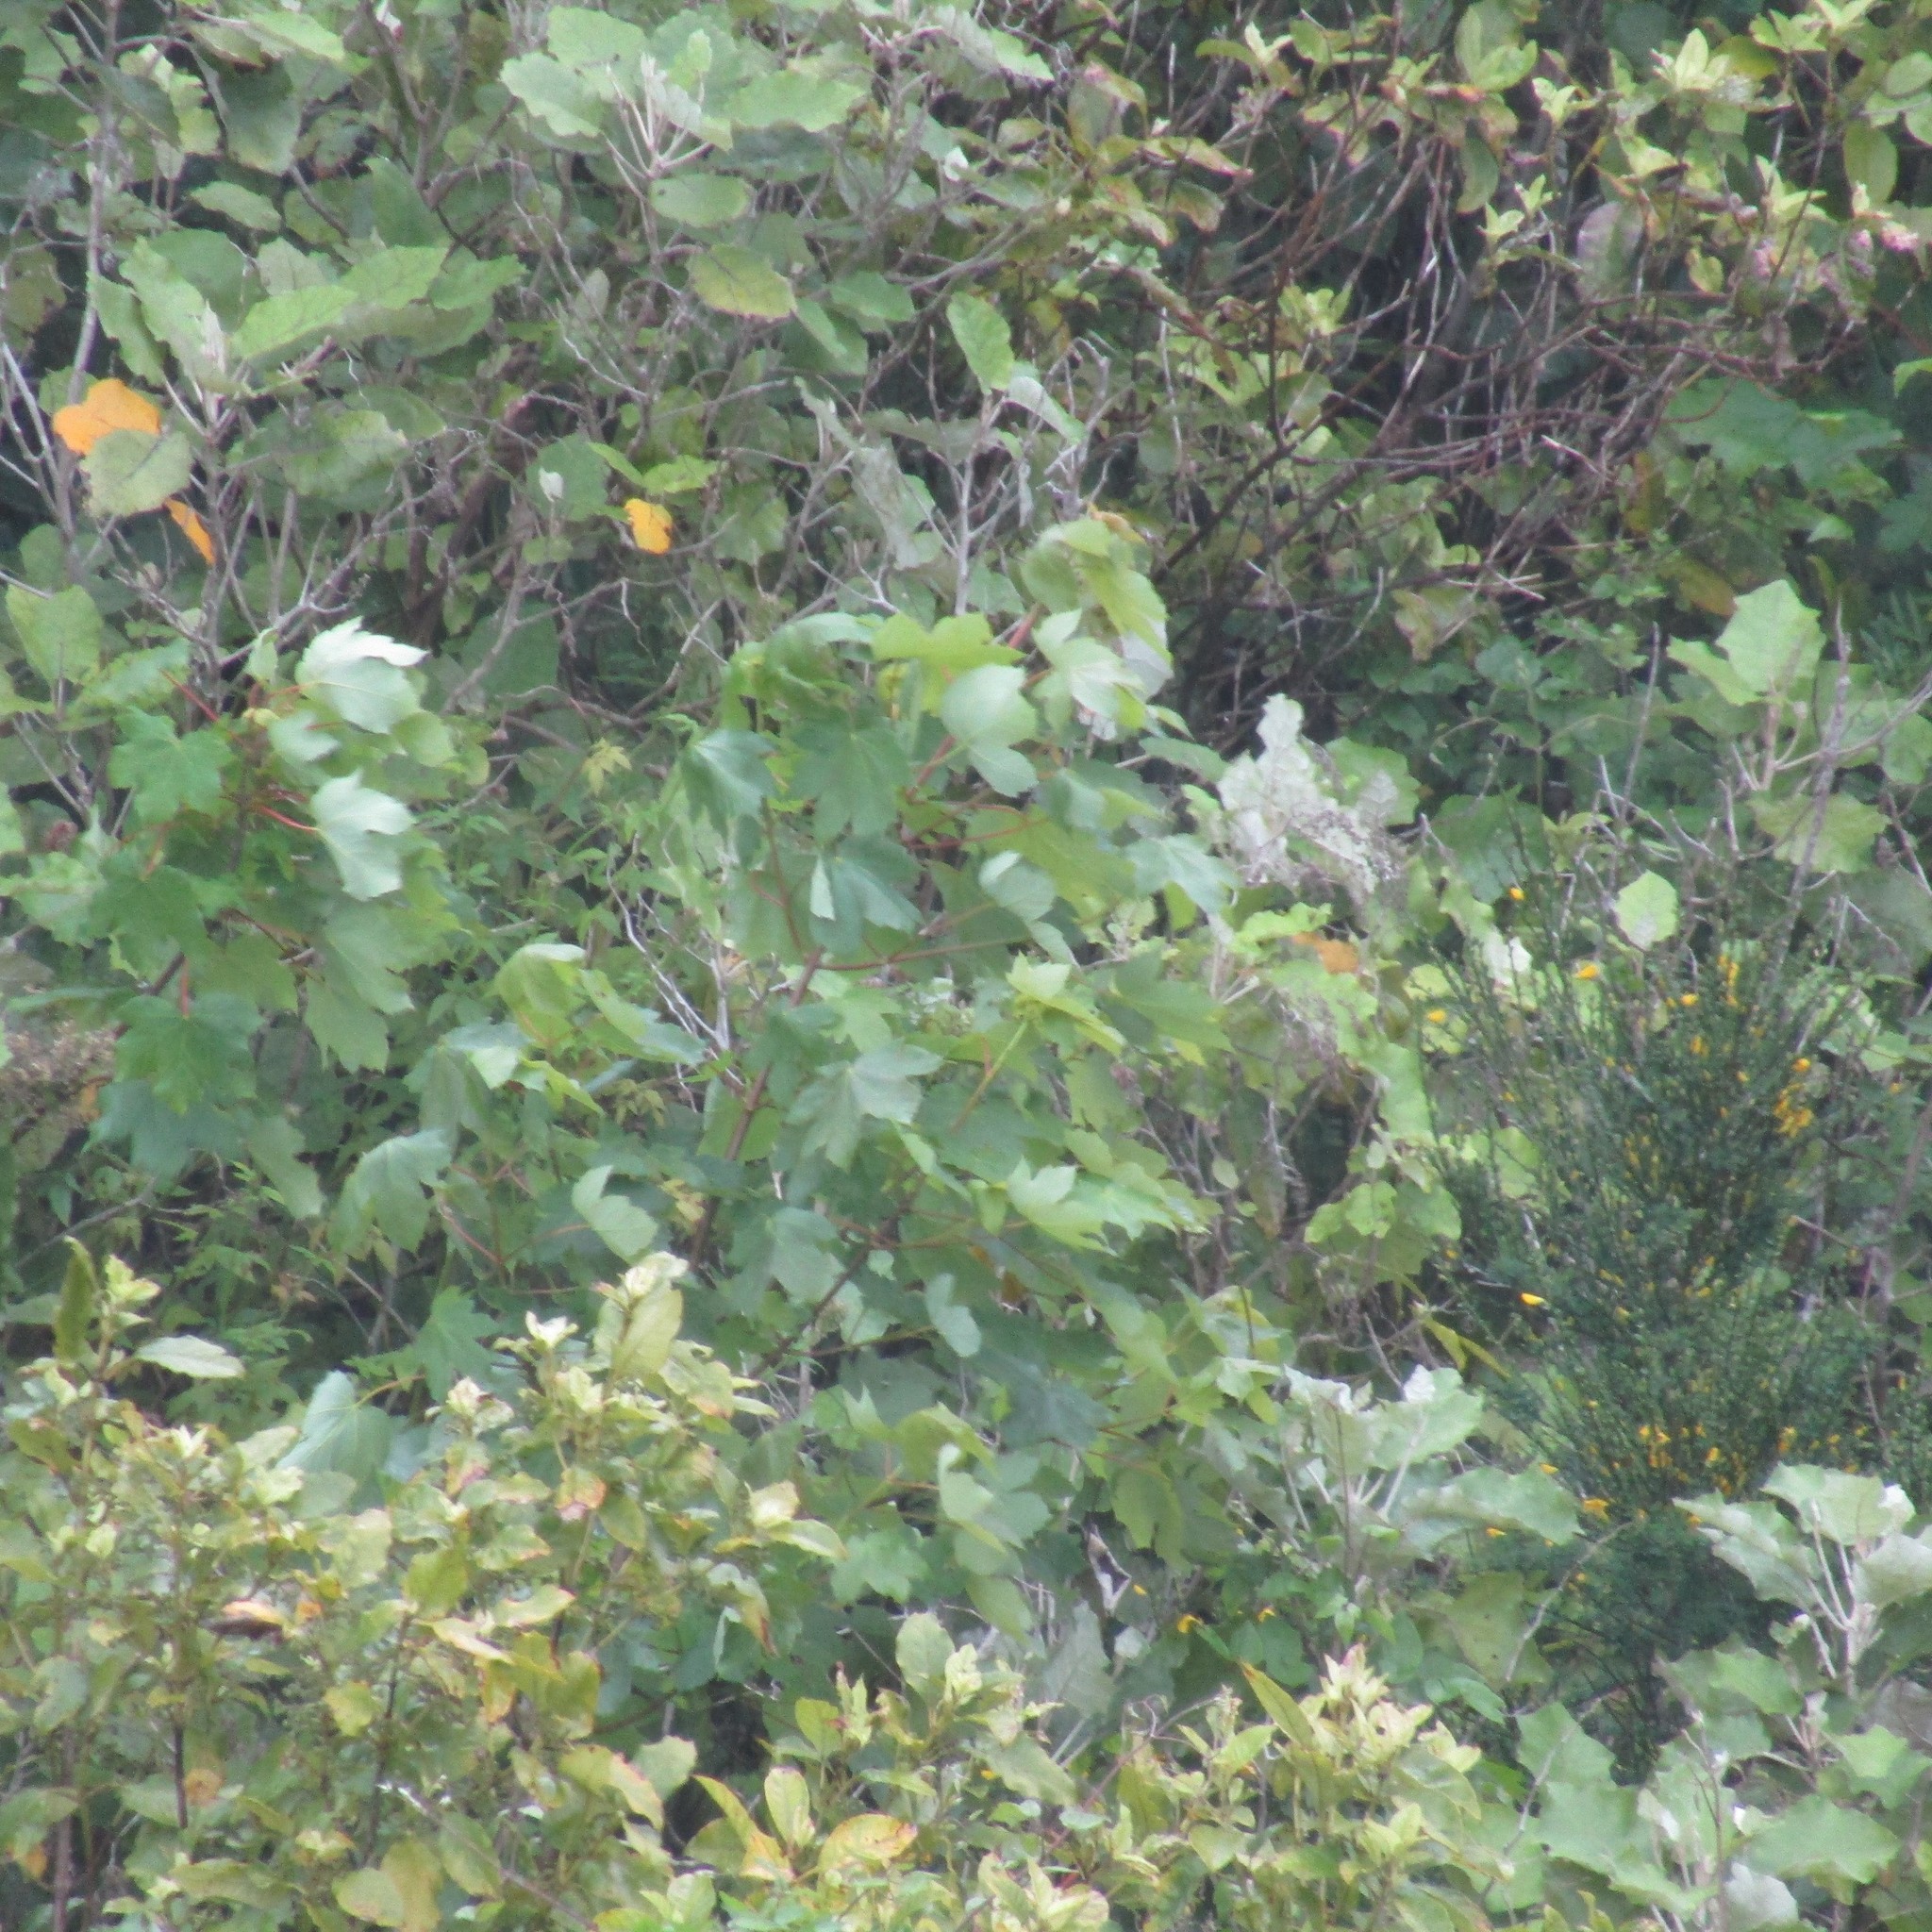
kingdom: Plantae
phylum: Tracheophyta
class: Magnoliopsida
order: Sapindales
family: Sapindaceae
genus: Acer
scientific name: Acer pseudoplatanus
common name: Sycamore
